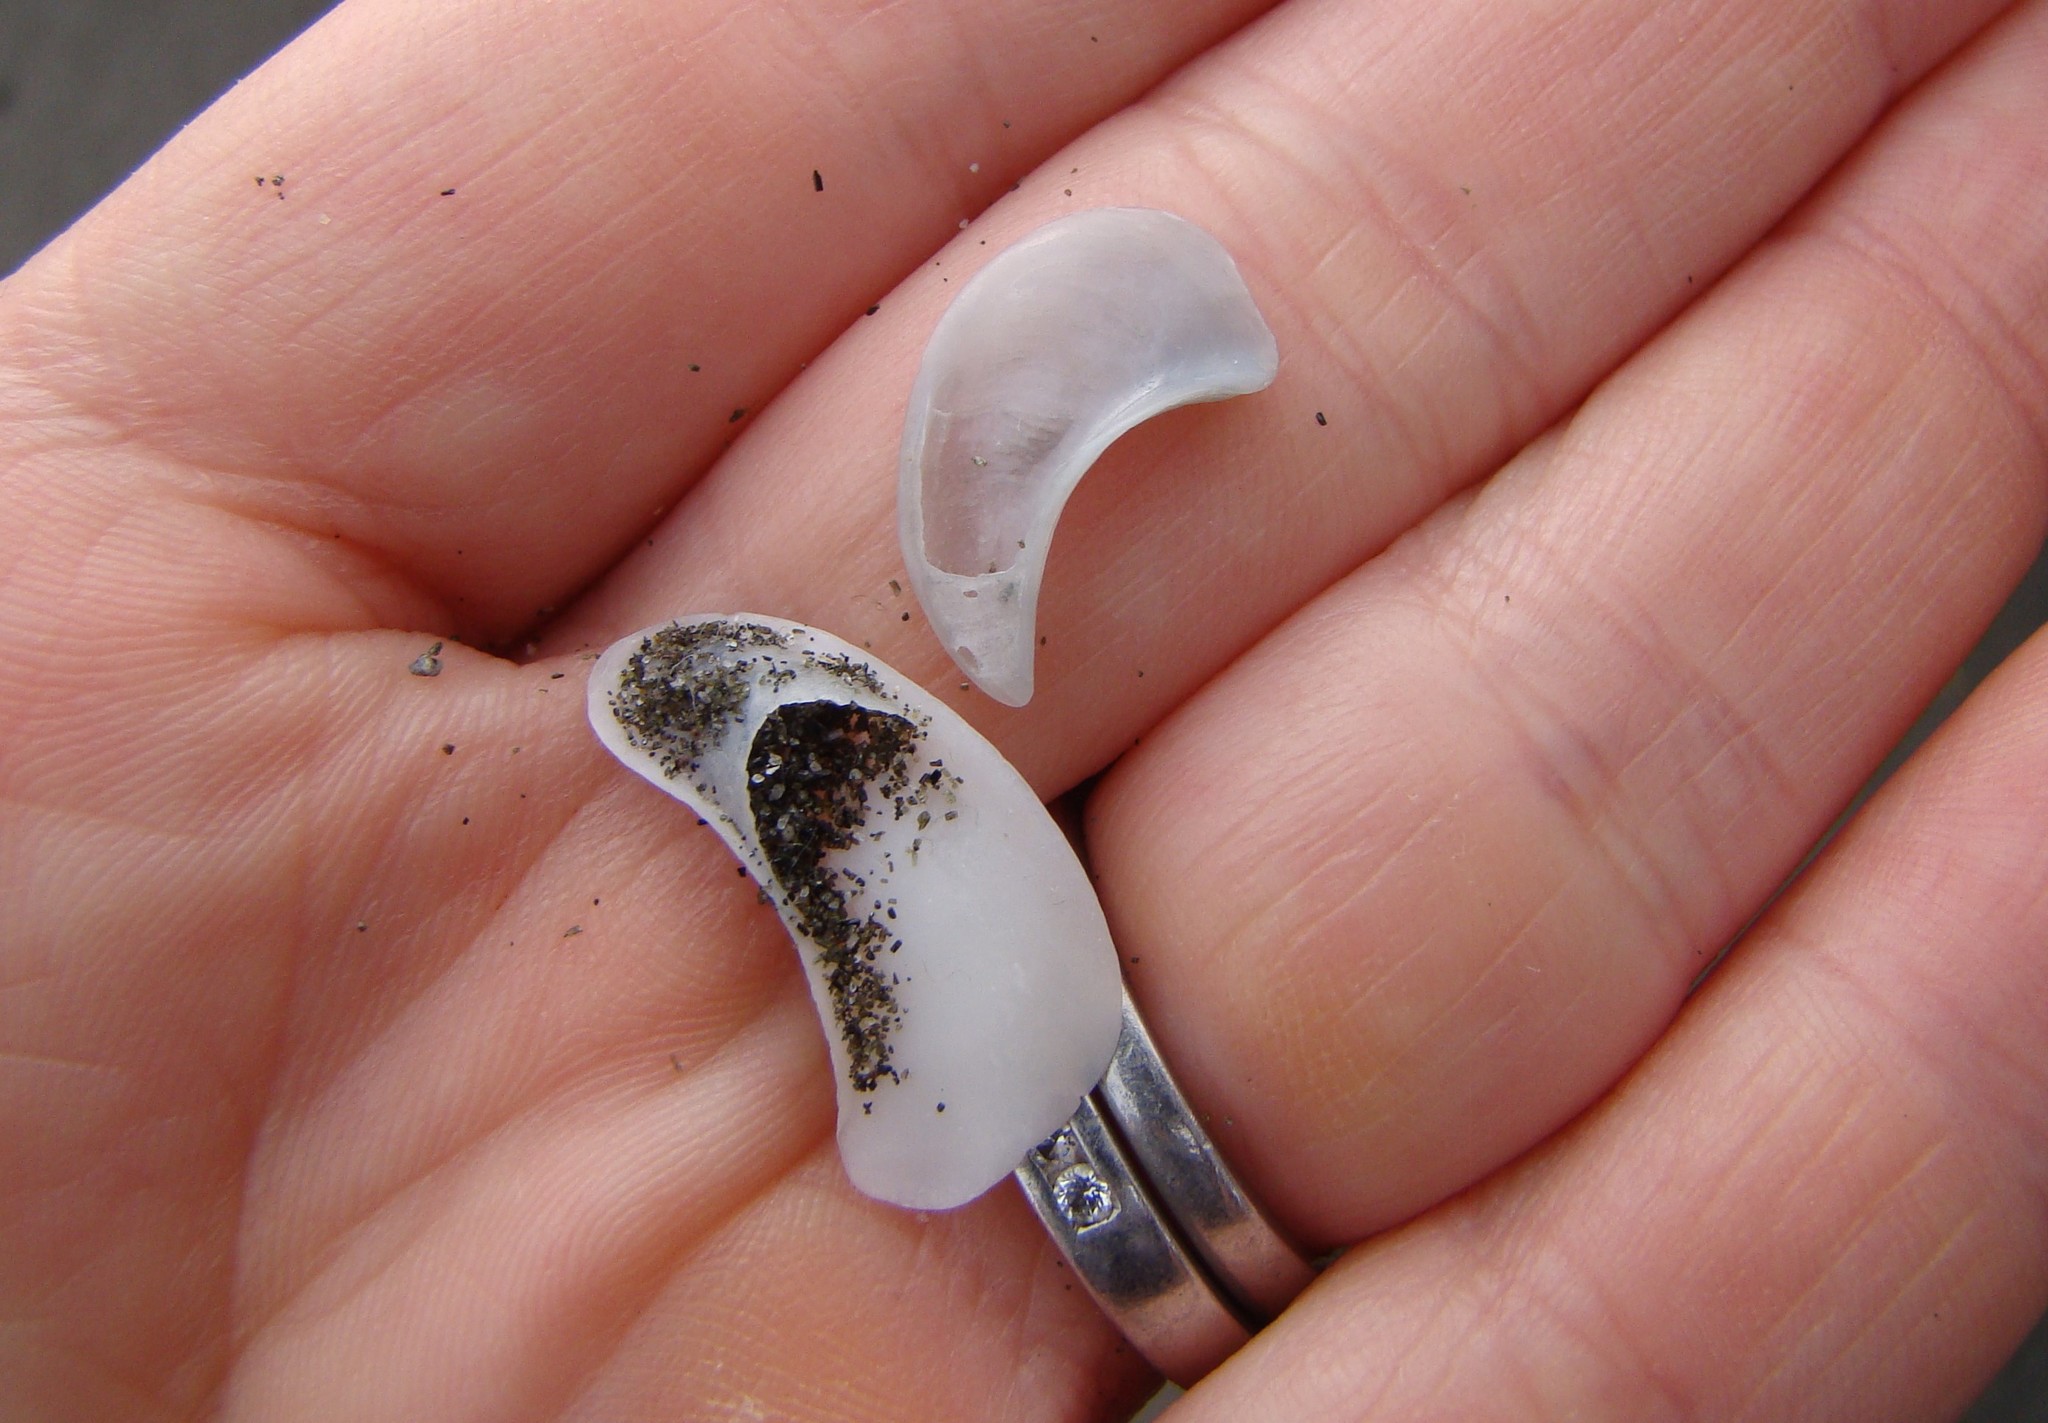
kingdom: Animalia
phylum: Mollusca
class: Gastropoda
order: Littorinimorpha
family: Calyptraeidae
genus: Maoricrypta
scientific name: Maoricrypta sodalis
